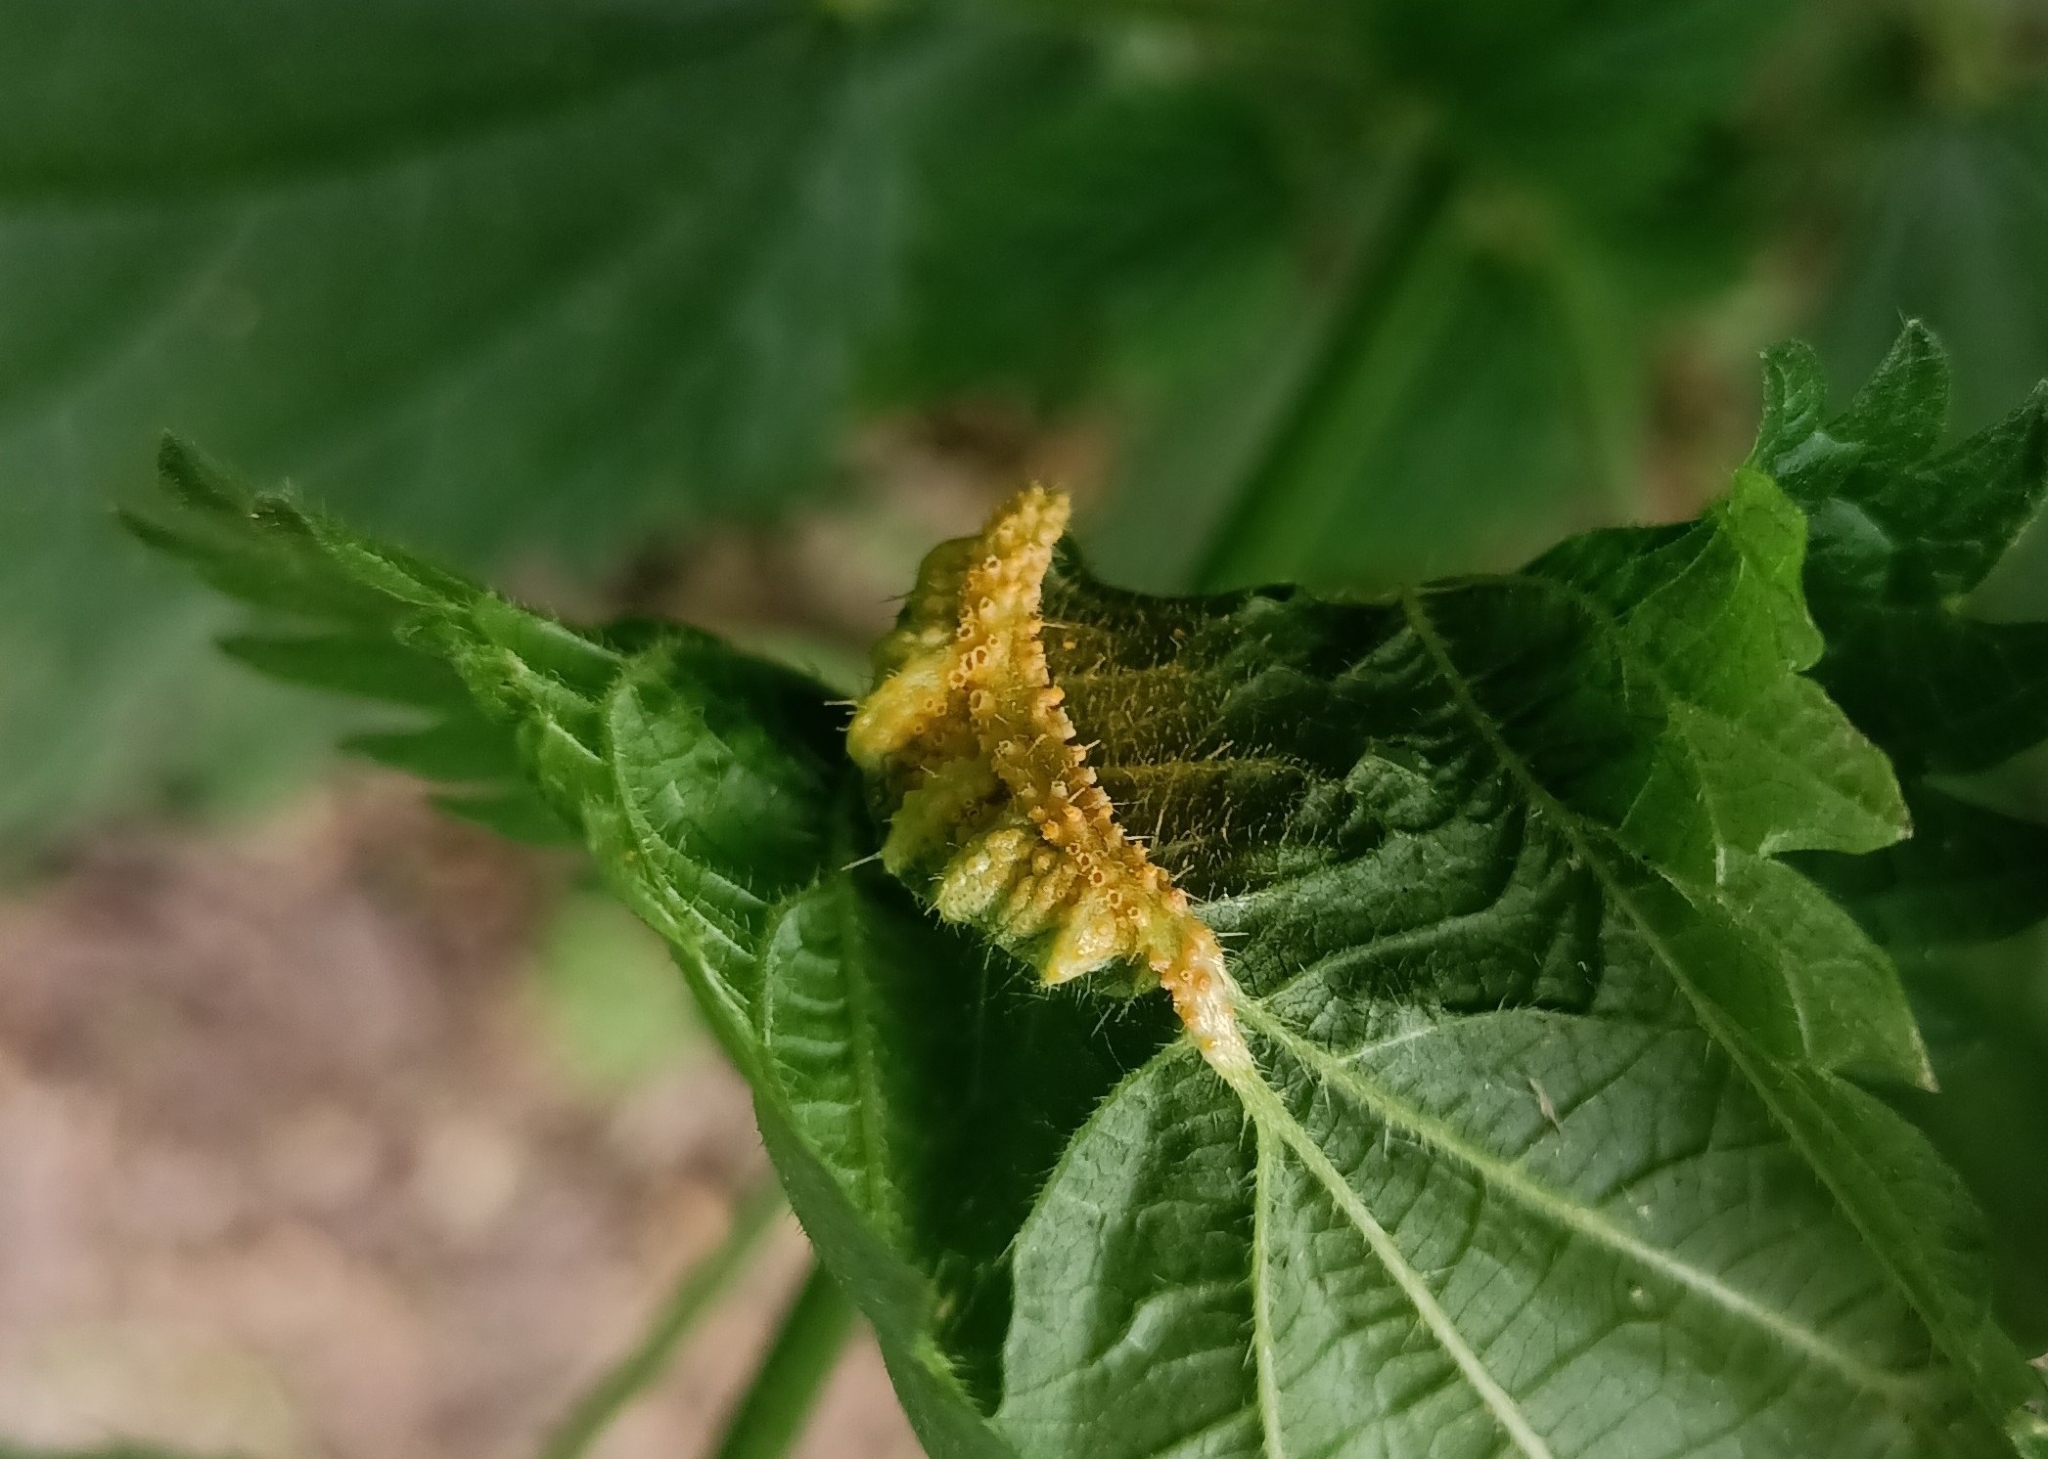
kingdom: Fungi
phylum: Basidiomycota
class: Pucciniomycetes
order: Pucciniales
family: Pucciniaceae
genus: Puccinia
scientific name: Puccinia urticata
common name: Nettle clustercup rust fungus
